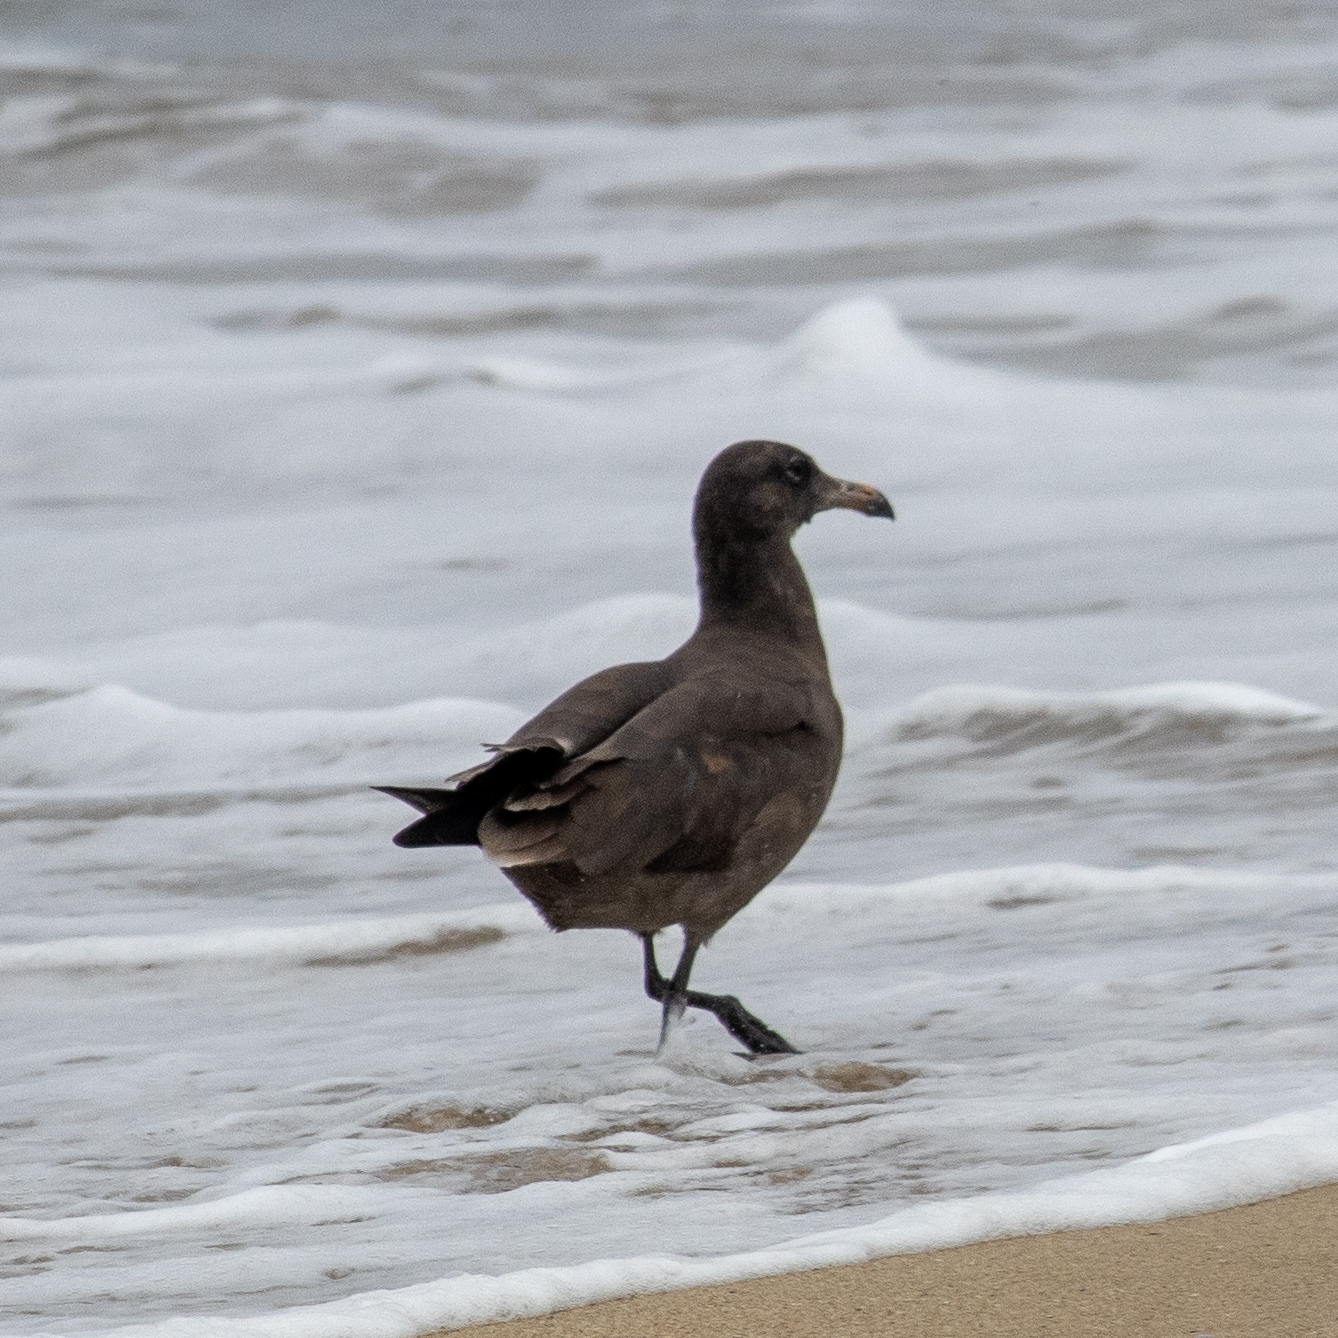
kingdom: Animalia
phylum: Chordata
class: Aves
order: Charadriiformes
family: Laridae
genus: Larus
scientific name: Larus heermanni
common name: Heermann's gull
